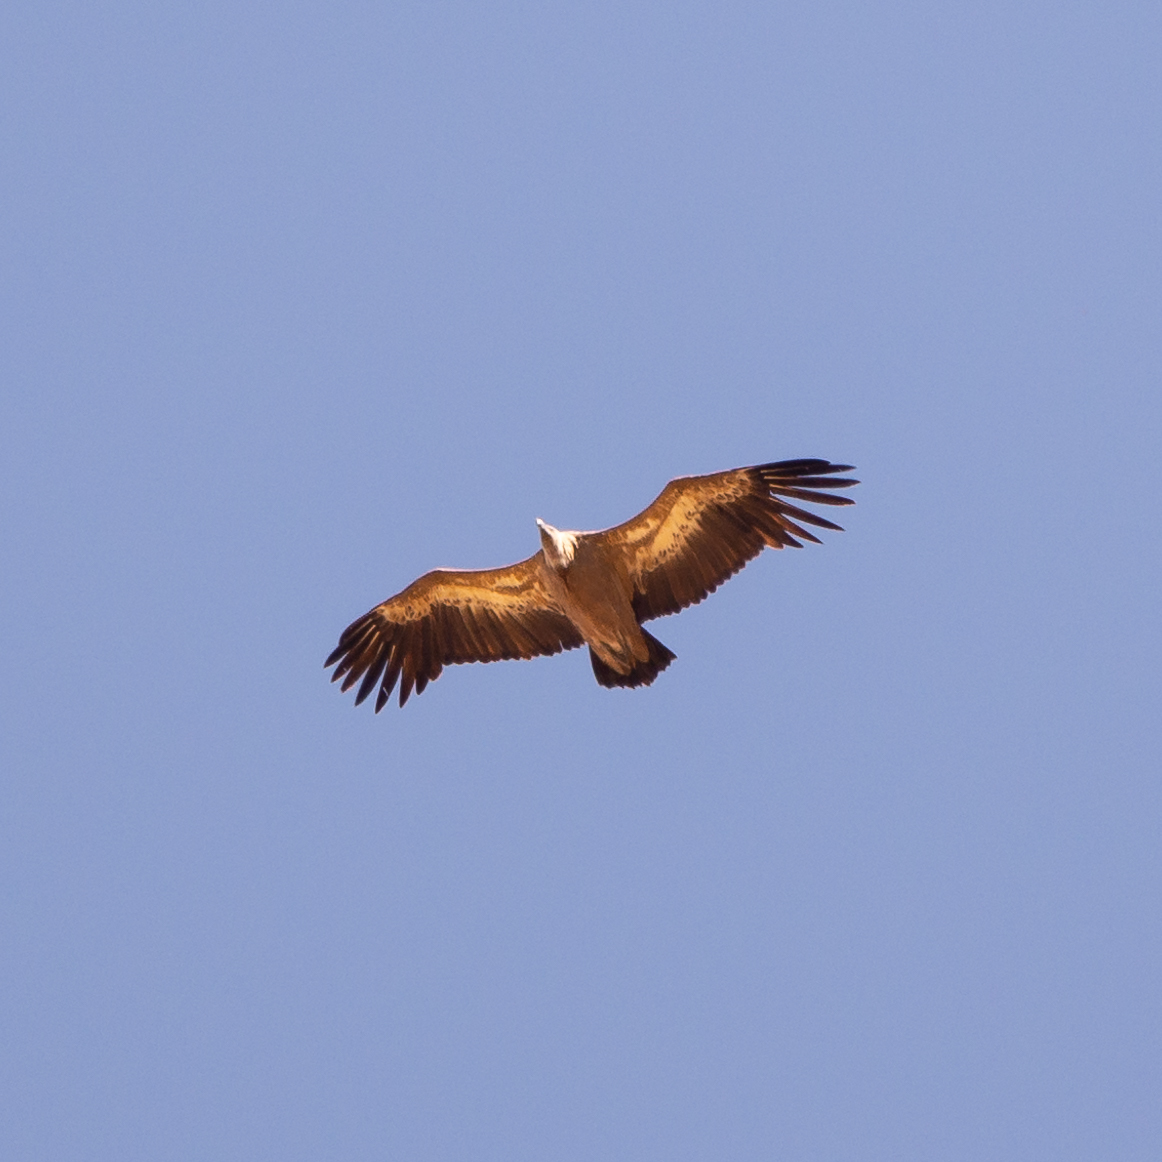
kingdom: Animalia
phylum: Chordata
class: Aves
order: Accipitriformes
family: Accipitridae
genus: Gyps
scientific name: Gyps fulvus
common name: Griffon vulture
